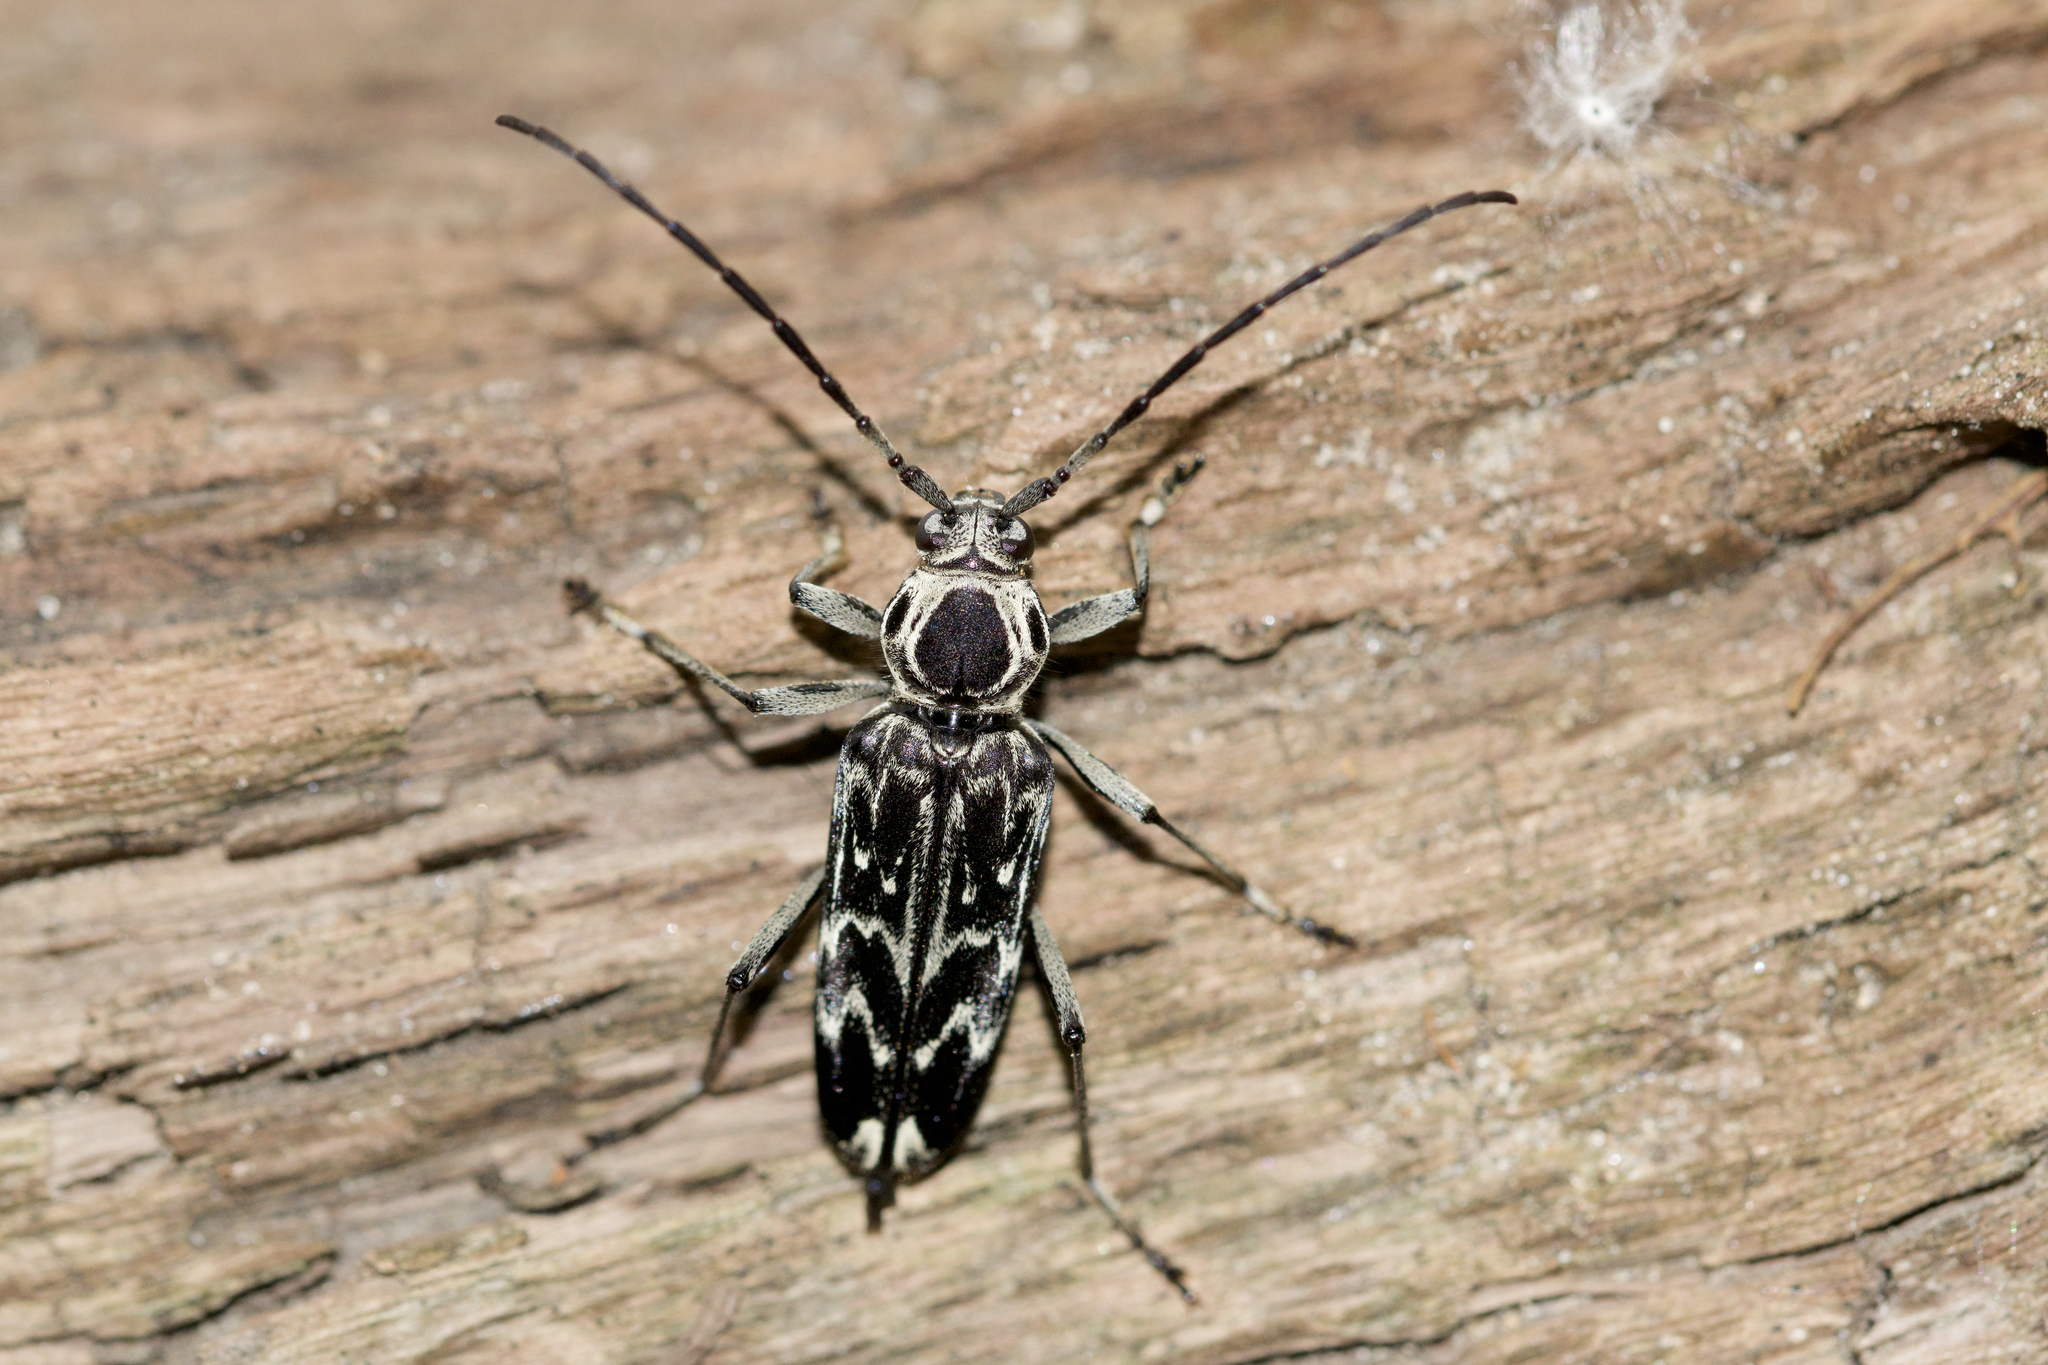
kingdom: Animalia
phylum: Arthropoda
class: Insecta
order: Coleoptera
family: Cerambycidae
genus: Sarosesthes
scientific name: Sarosesthes fulminans
